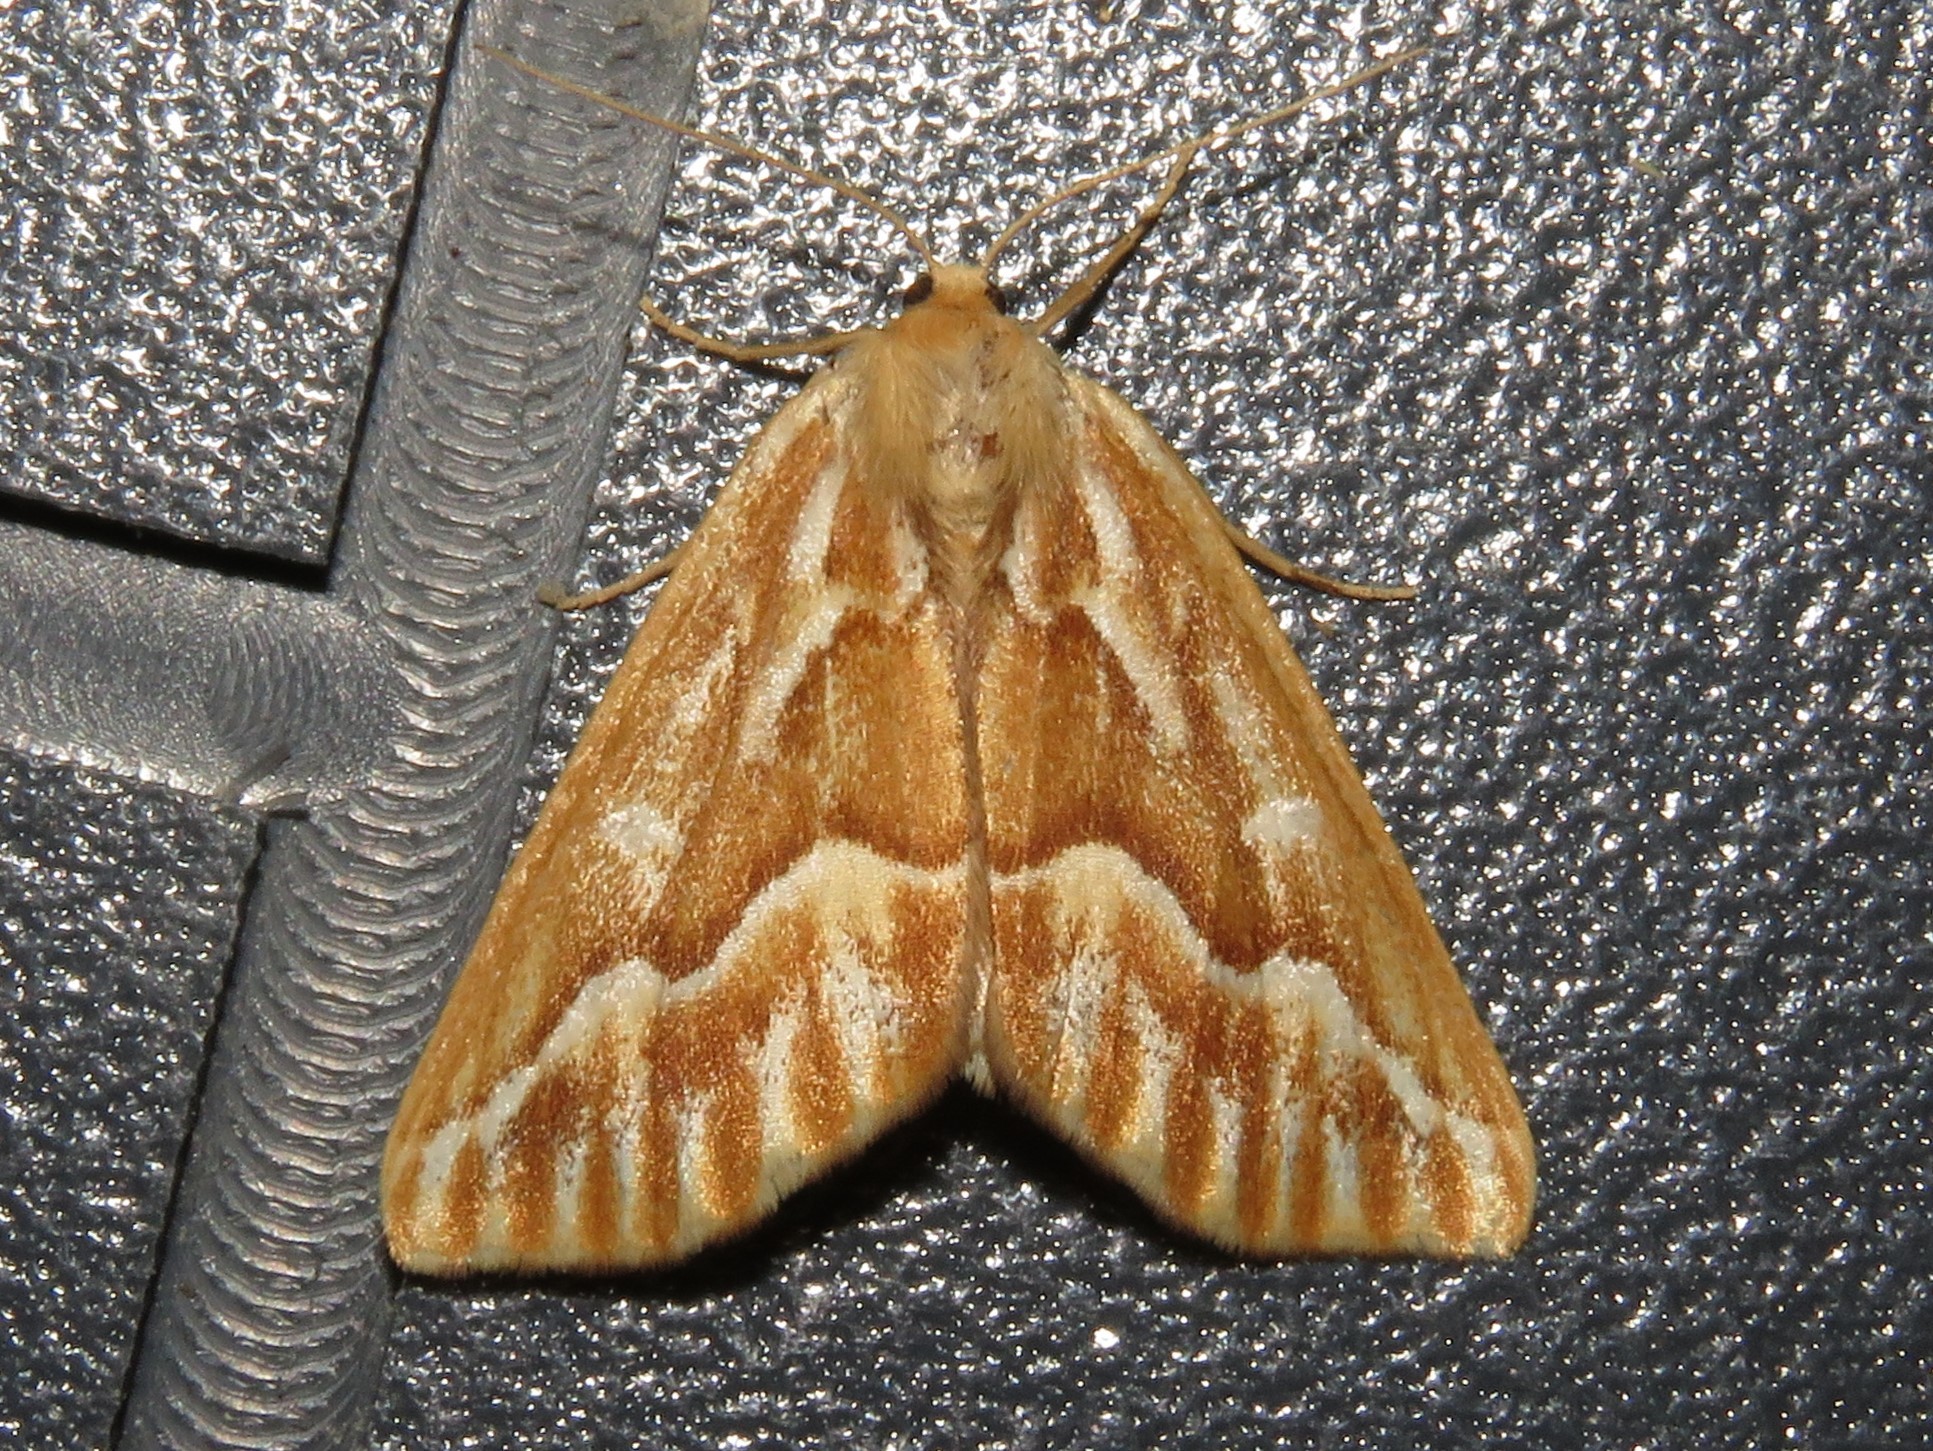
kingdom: Animalia
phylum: Arthropoda
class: Insecta
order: Lepidoptera
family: Geometridae
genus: Caripeta
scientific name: Caripeta piniata
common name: Northern pine looper moth
